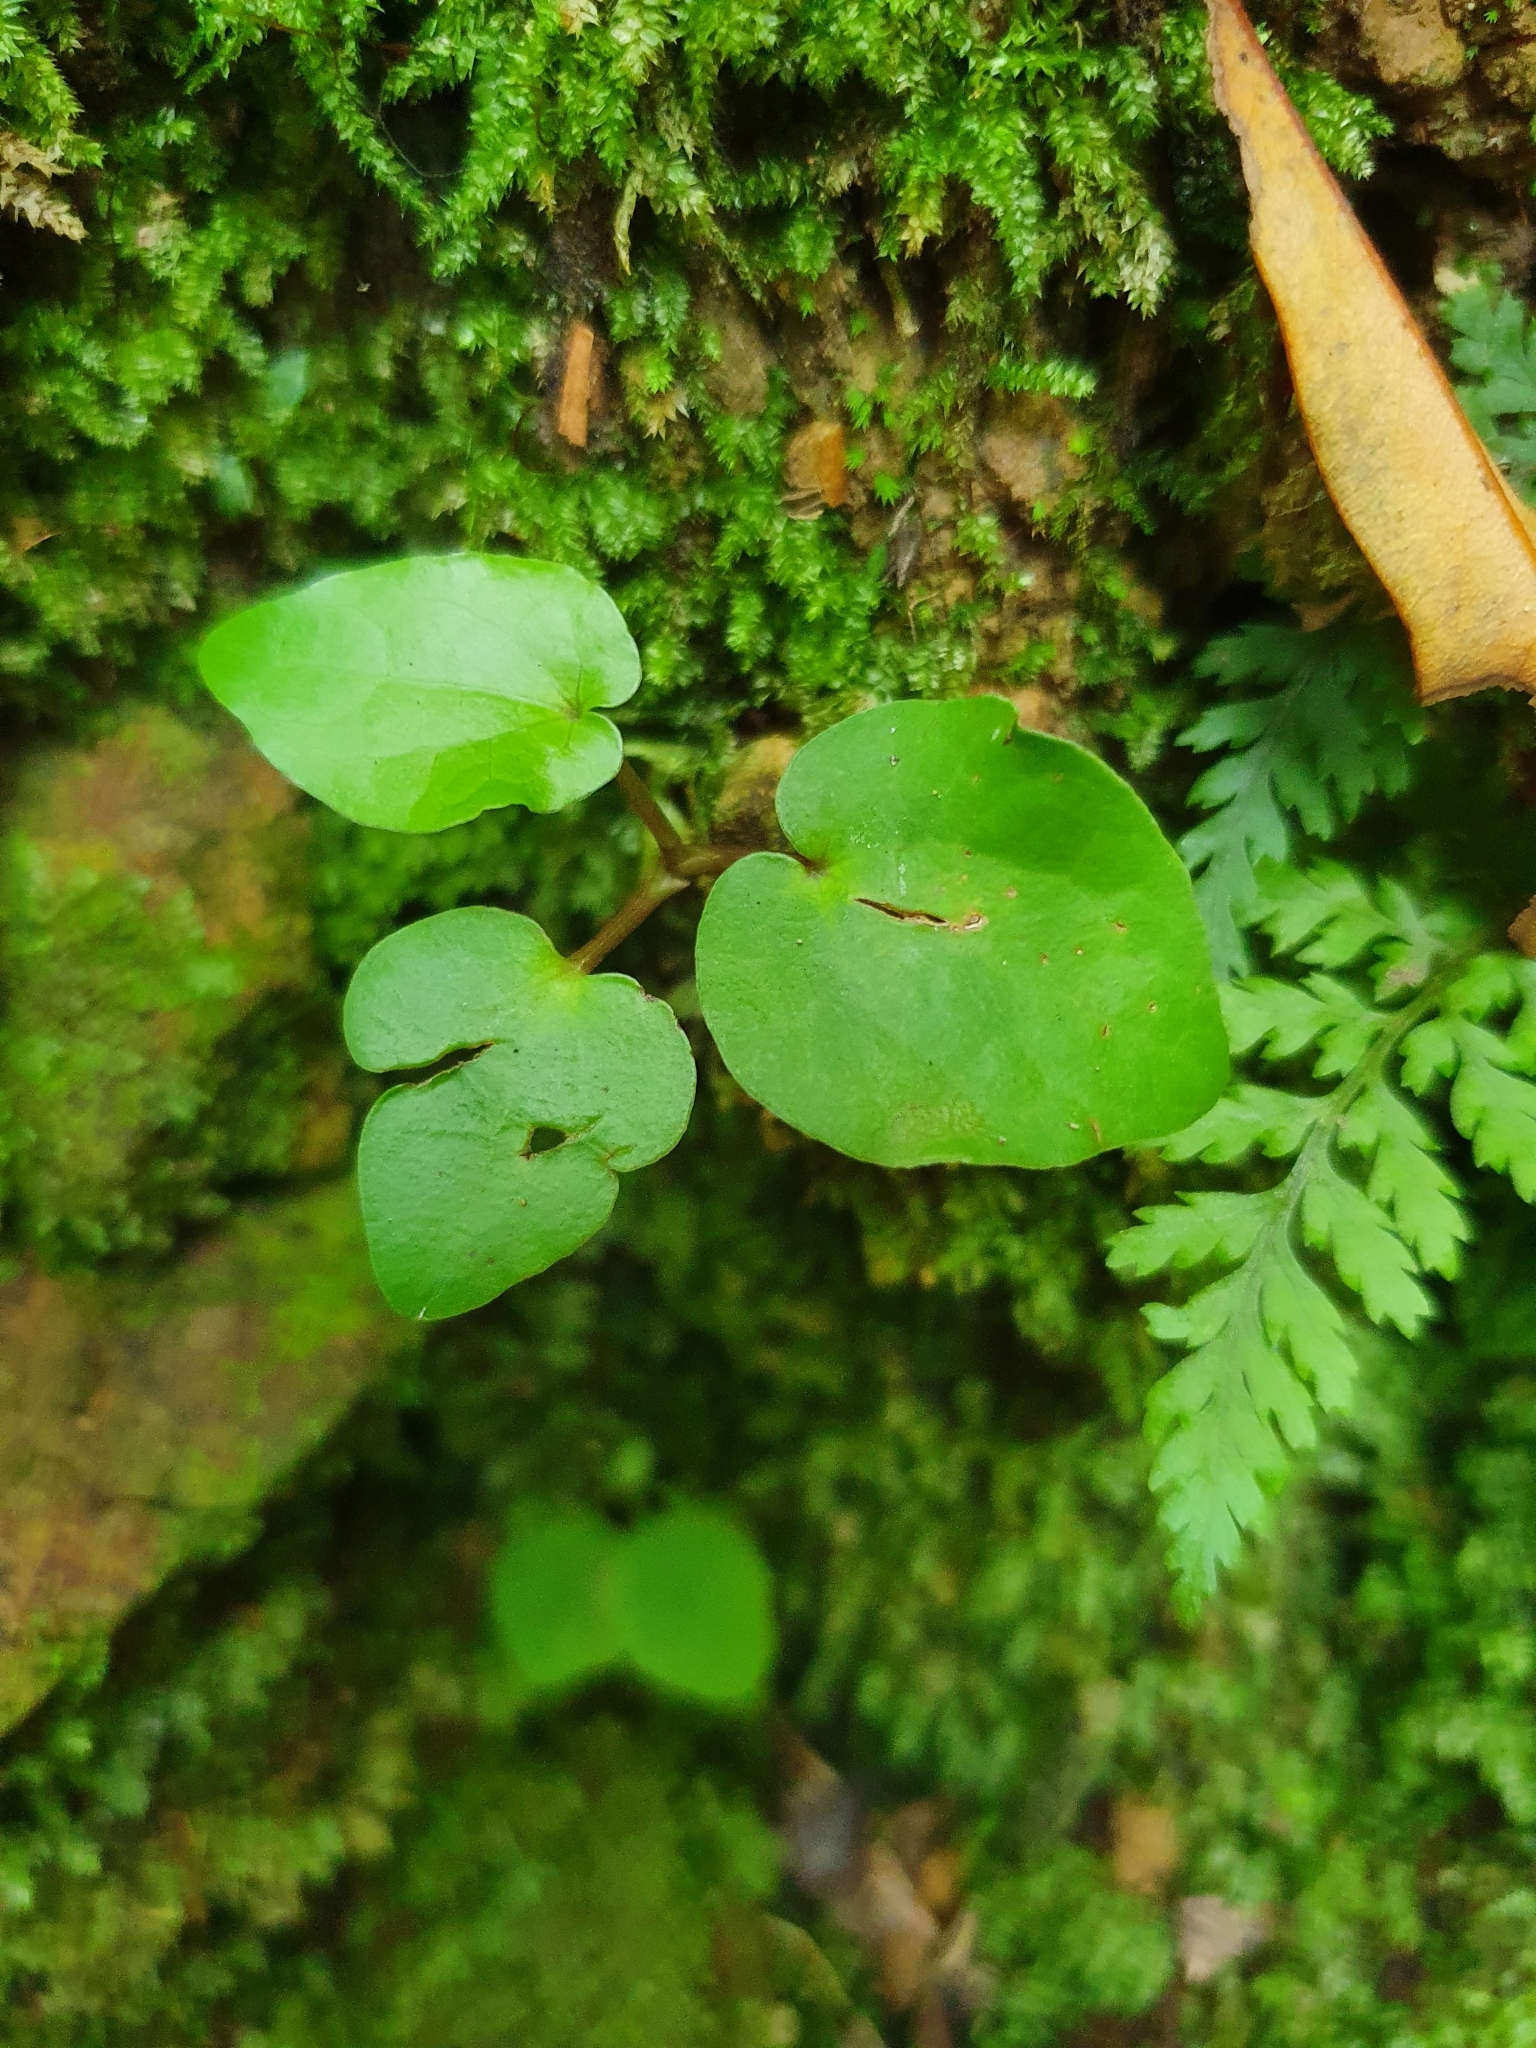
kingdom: Plantae
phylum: Tracheophyta
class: Magnoliopsida
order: Piperales
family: Piperaceae
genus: Macropiper
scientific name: Macropiper excelsum
